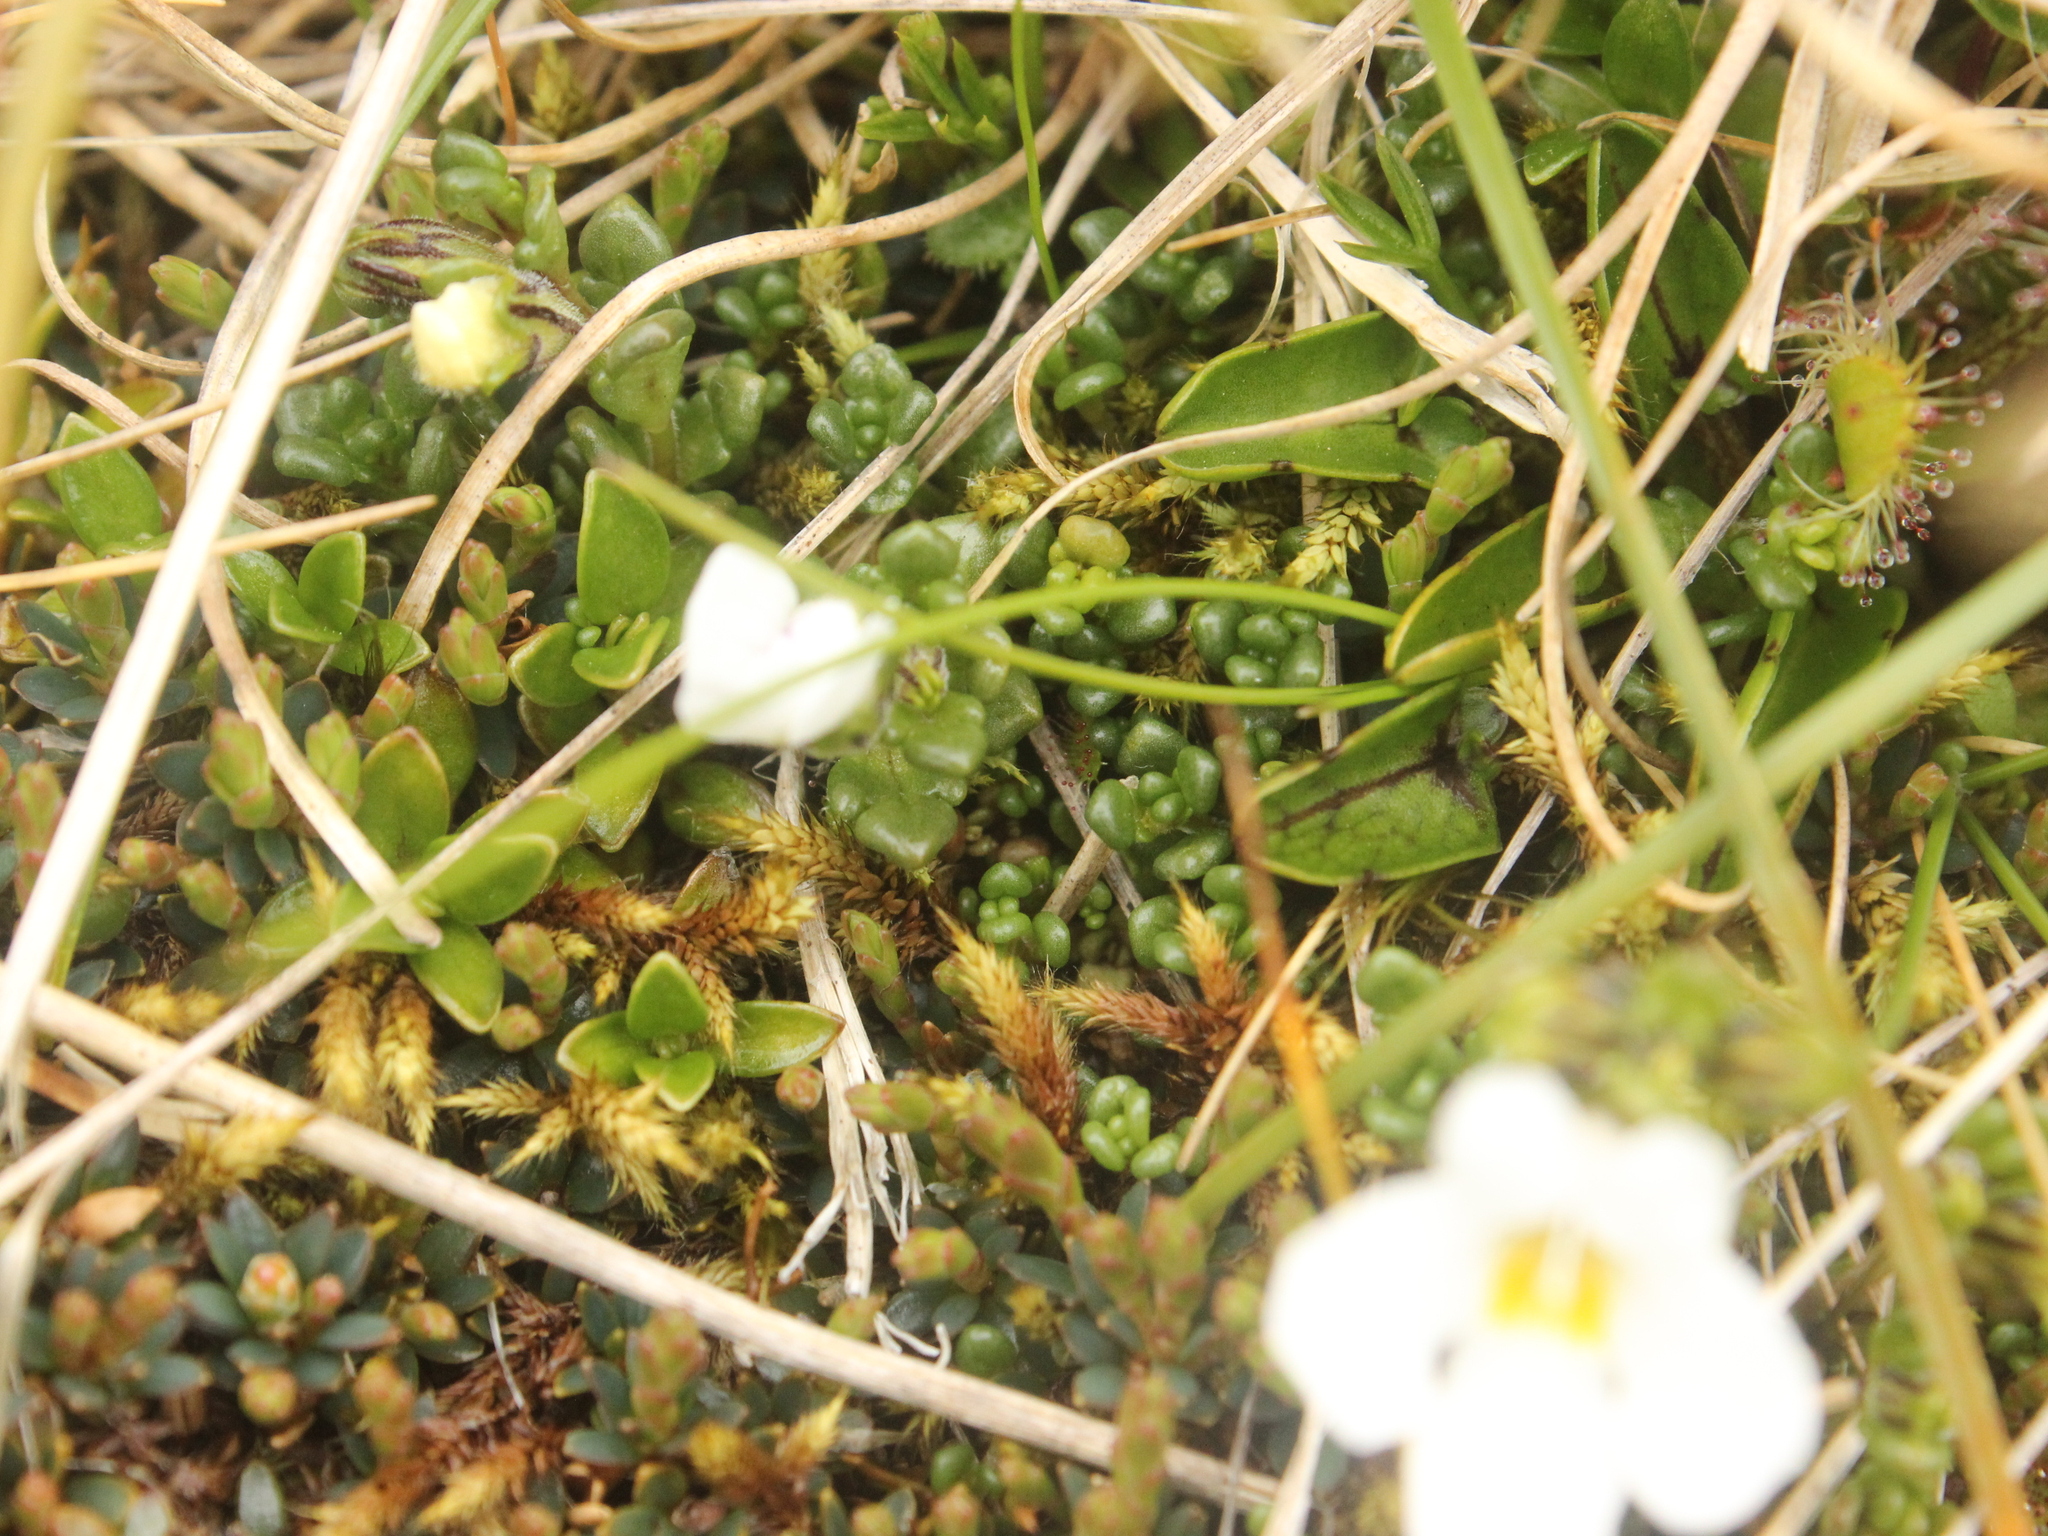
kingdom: Plantae
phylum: Tracheophyta
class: Magnoliopsida
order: Lamiales
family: Orobanchaceae
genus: Euphrasia
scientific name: Euphrasia revoluta
